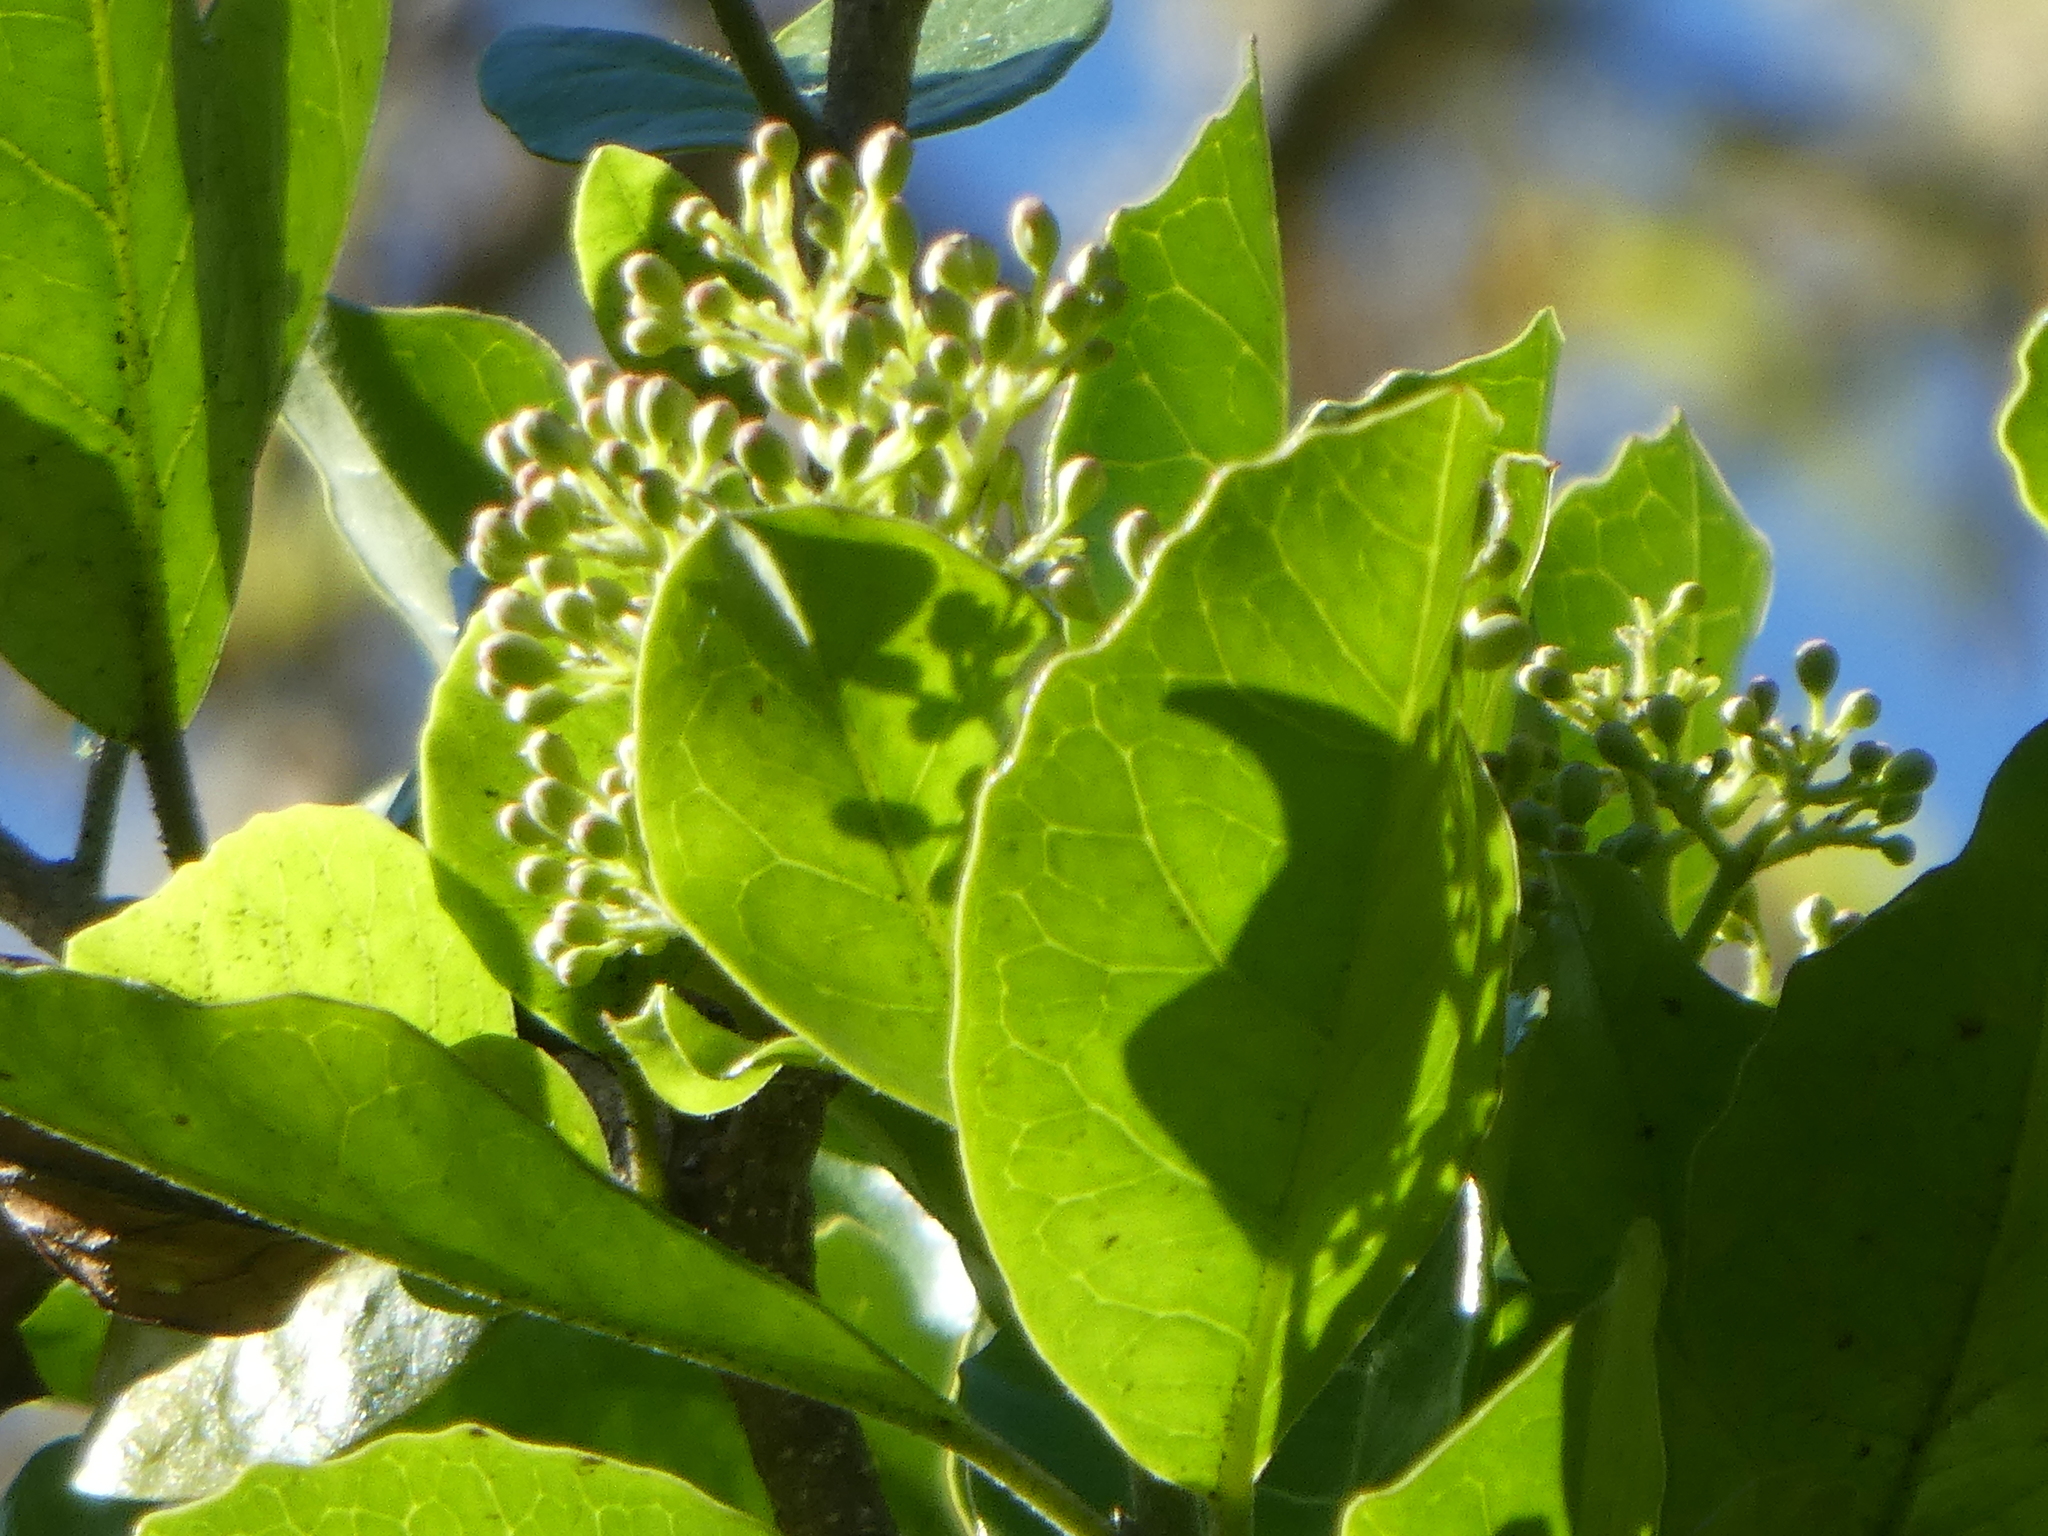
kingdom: Plantae
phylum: Tracheophyta
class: Magnoliopsida
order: Apiales
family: Pennantiaceae
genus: Pennantia
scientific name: Pennantia corymbosa
